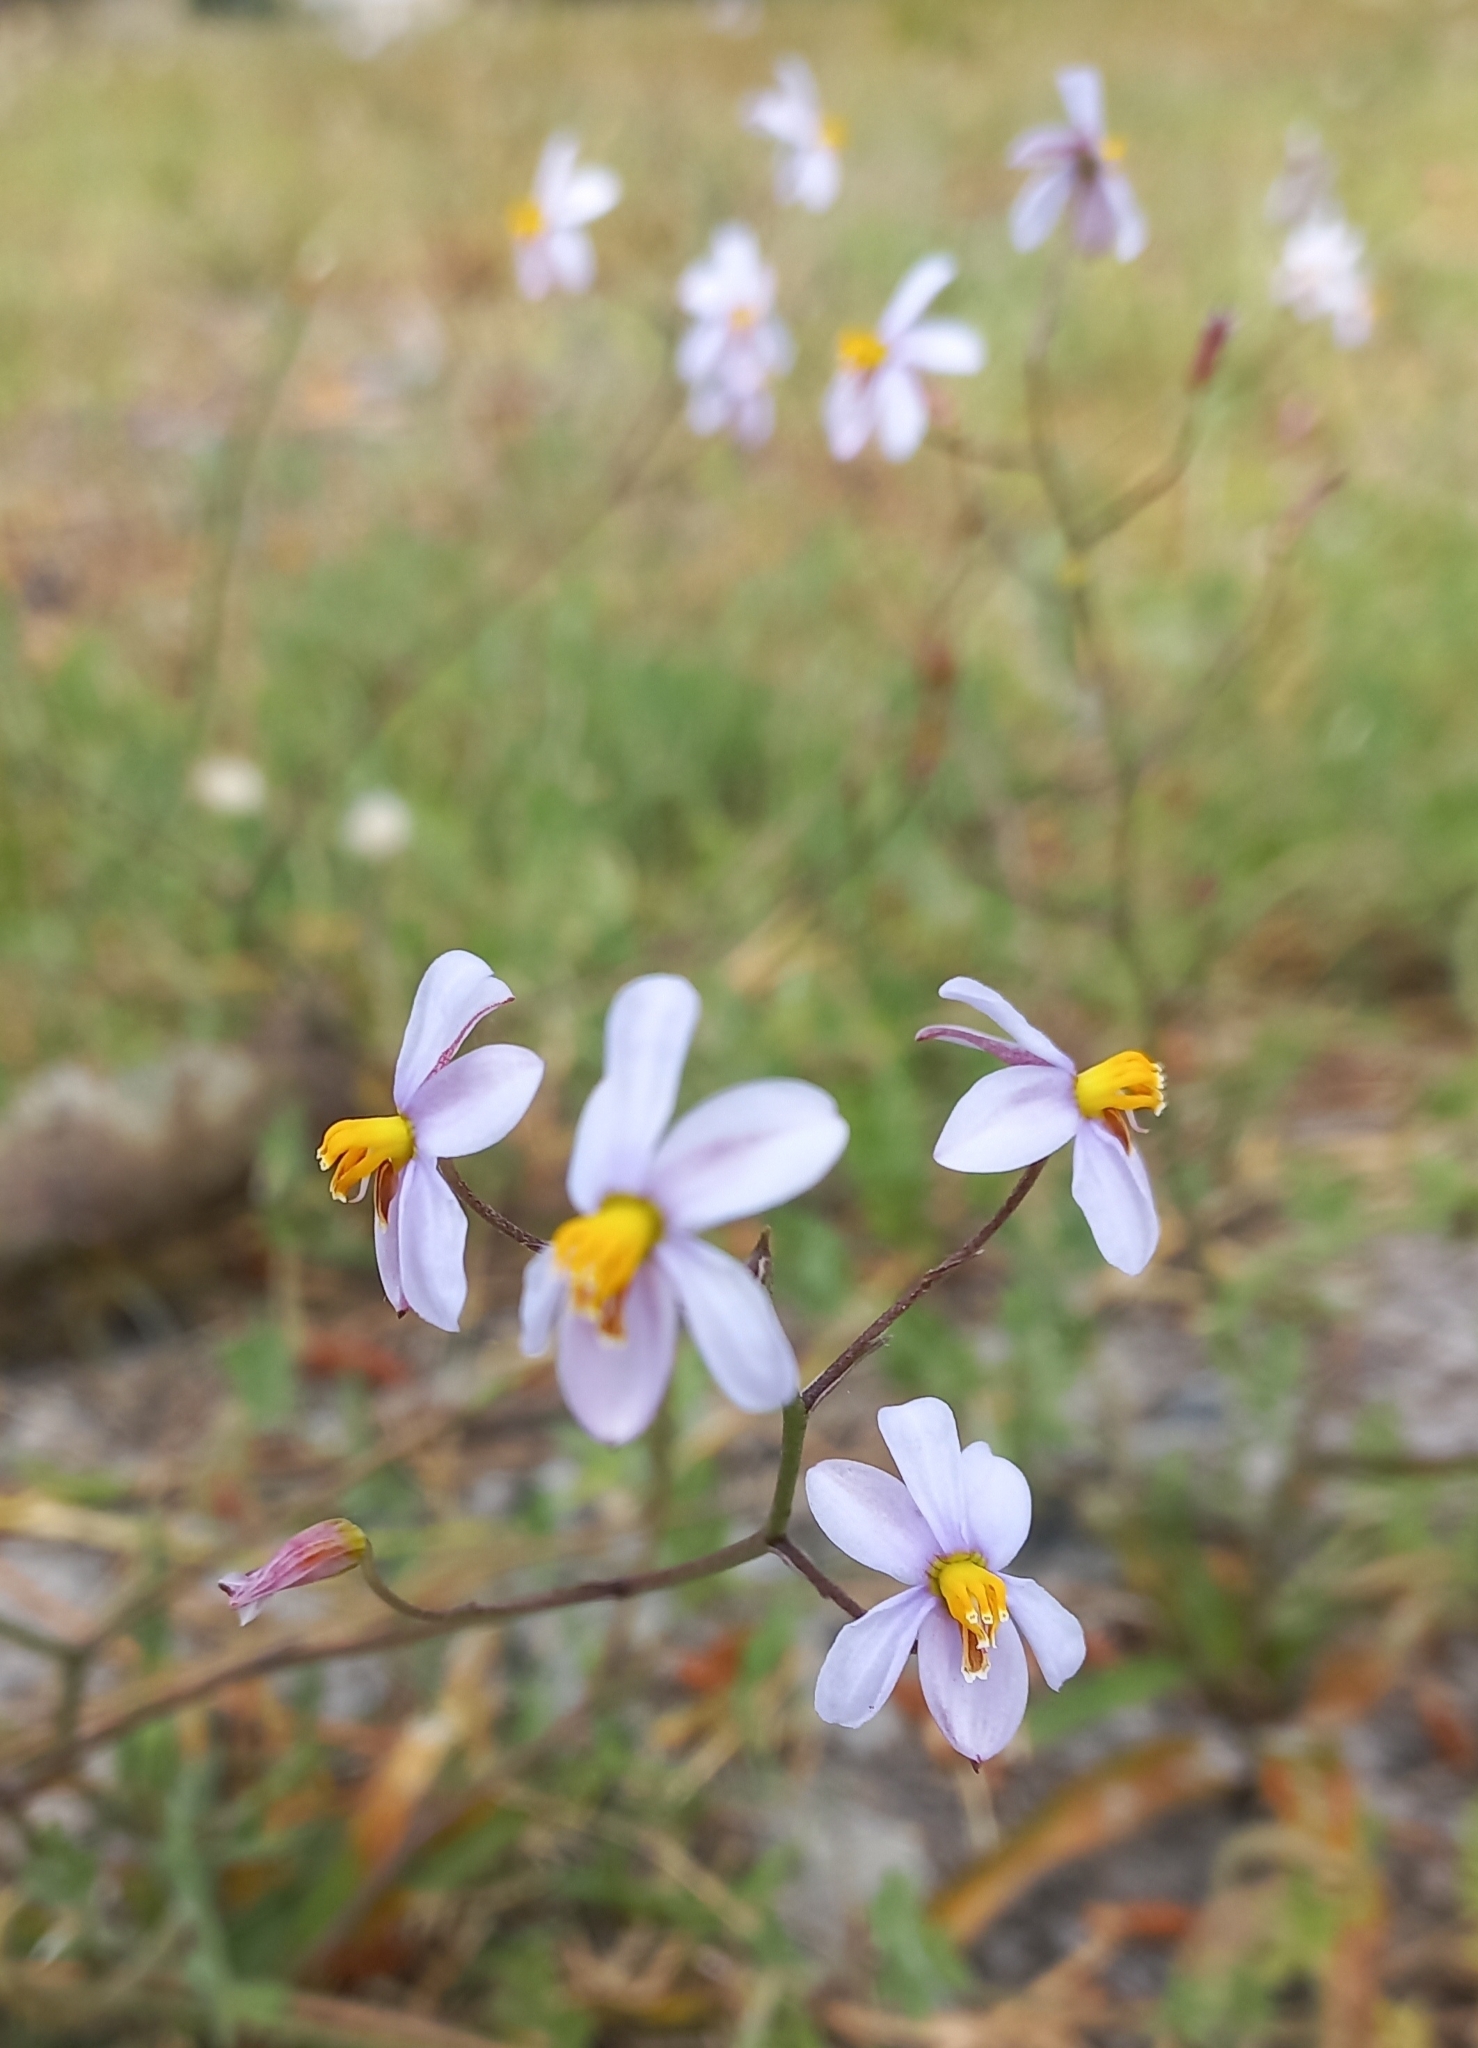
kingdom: Plantae
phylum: Tracheophyta
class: Liliopsida
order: Asparagales
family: Tecophilaeaceae
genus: Cyanella
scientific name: Cyanella hyacinthoides
